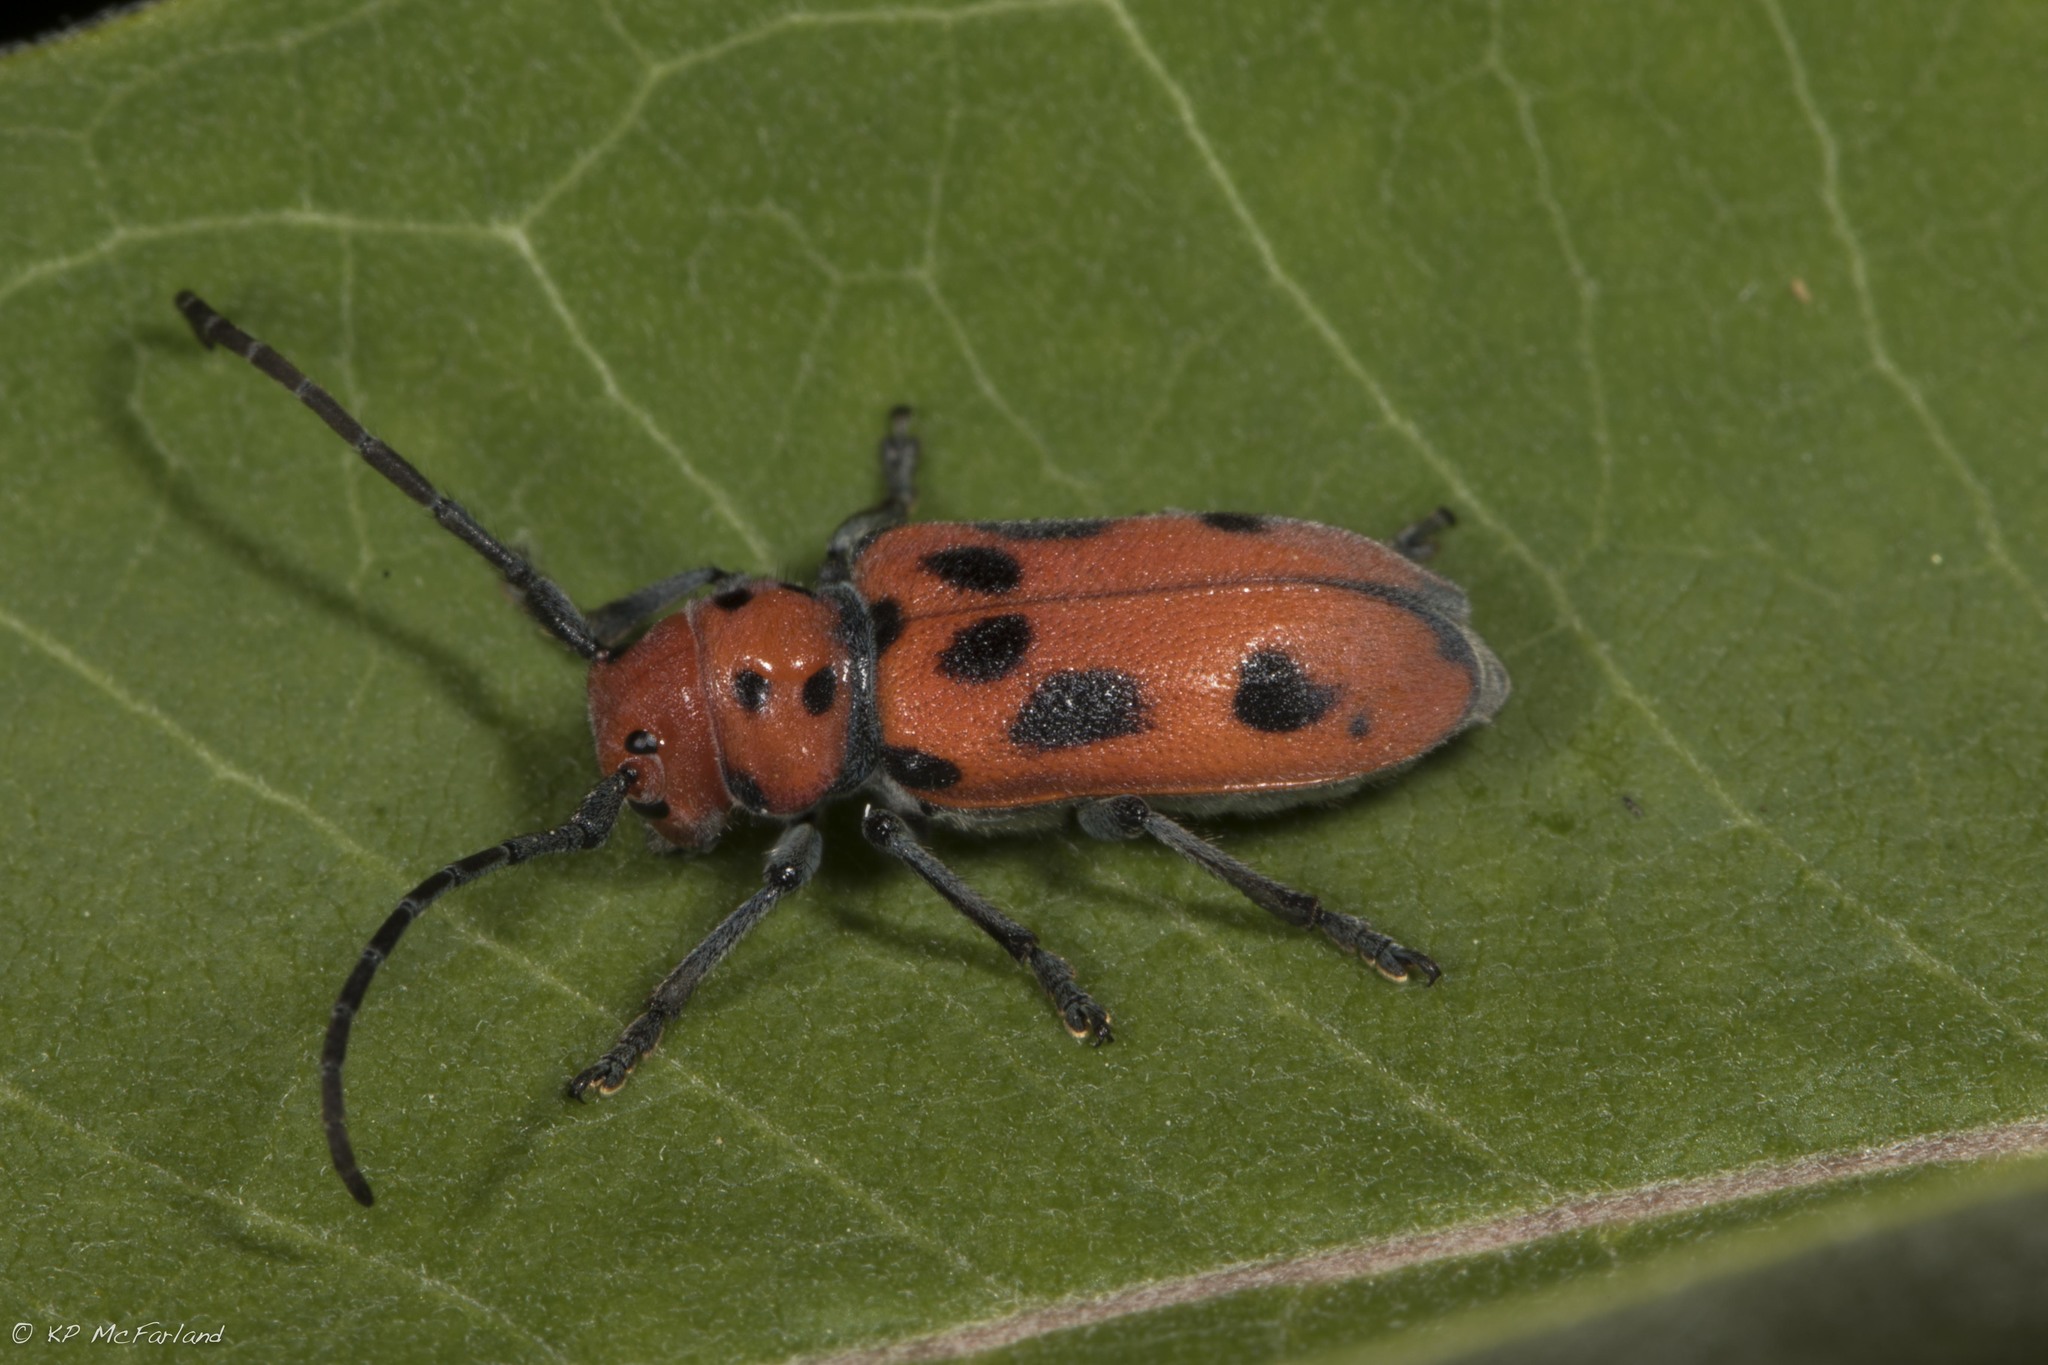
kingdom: Animalia
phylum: Arthropoda
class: Insecta
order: Coleoptera
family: Cerambycidae
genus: Tetraopes
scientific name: Tetraopes tetrophthalmus
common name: Red milkweed beetle
